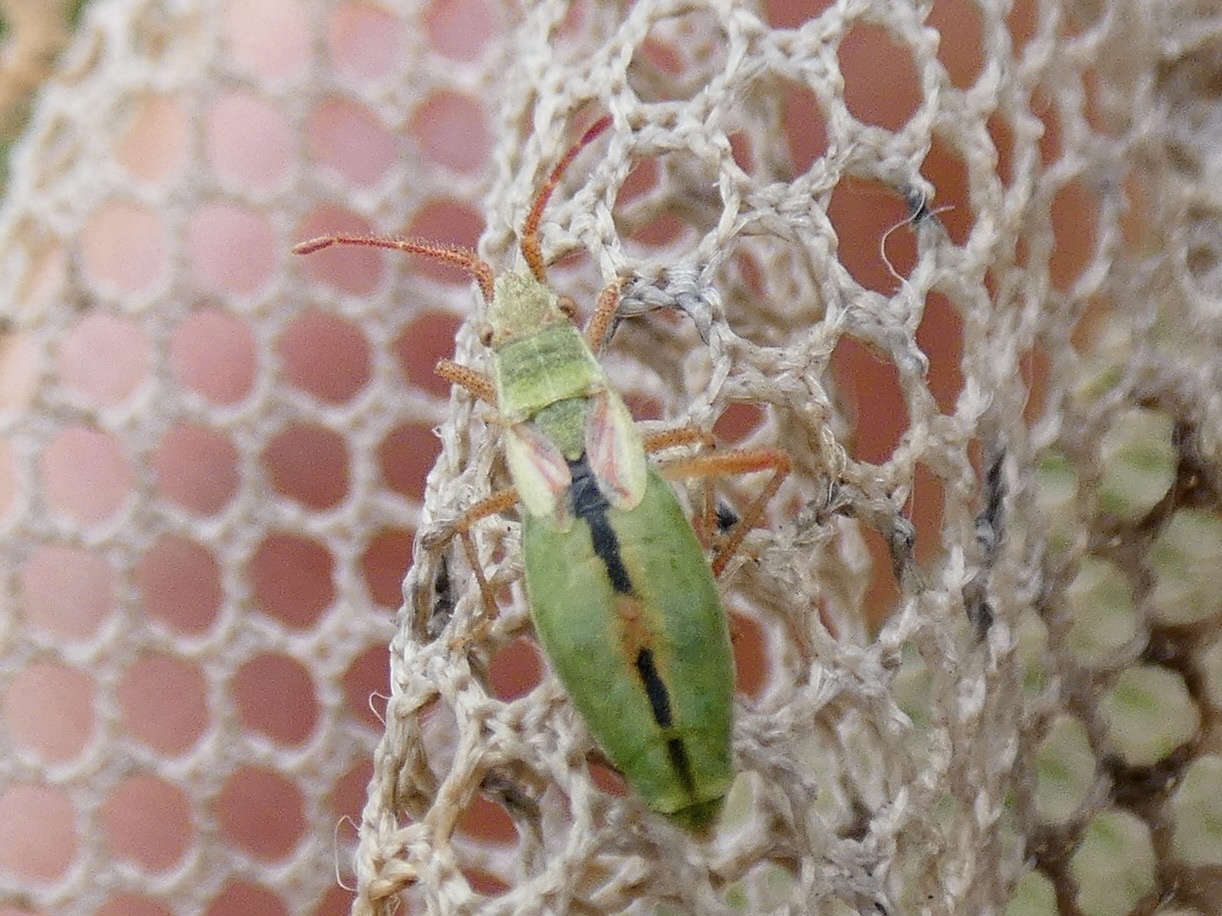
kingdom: Animalia
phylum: Arthropoda
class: Insecta
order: Hemiptera
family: Rhopalidae
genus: Myrmus
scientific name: Myrmus miriformis
